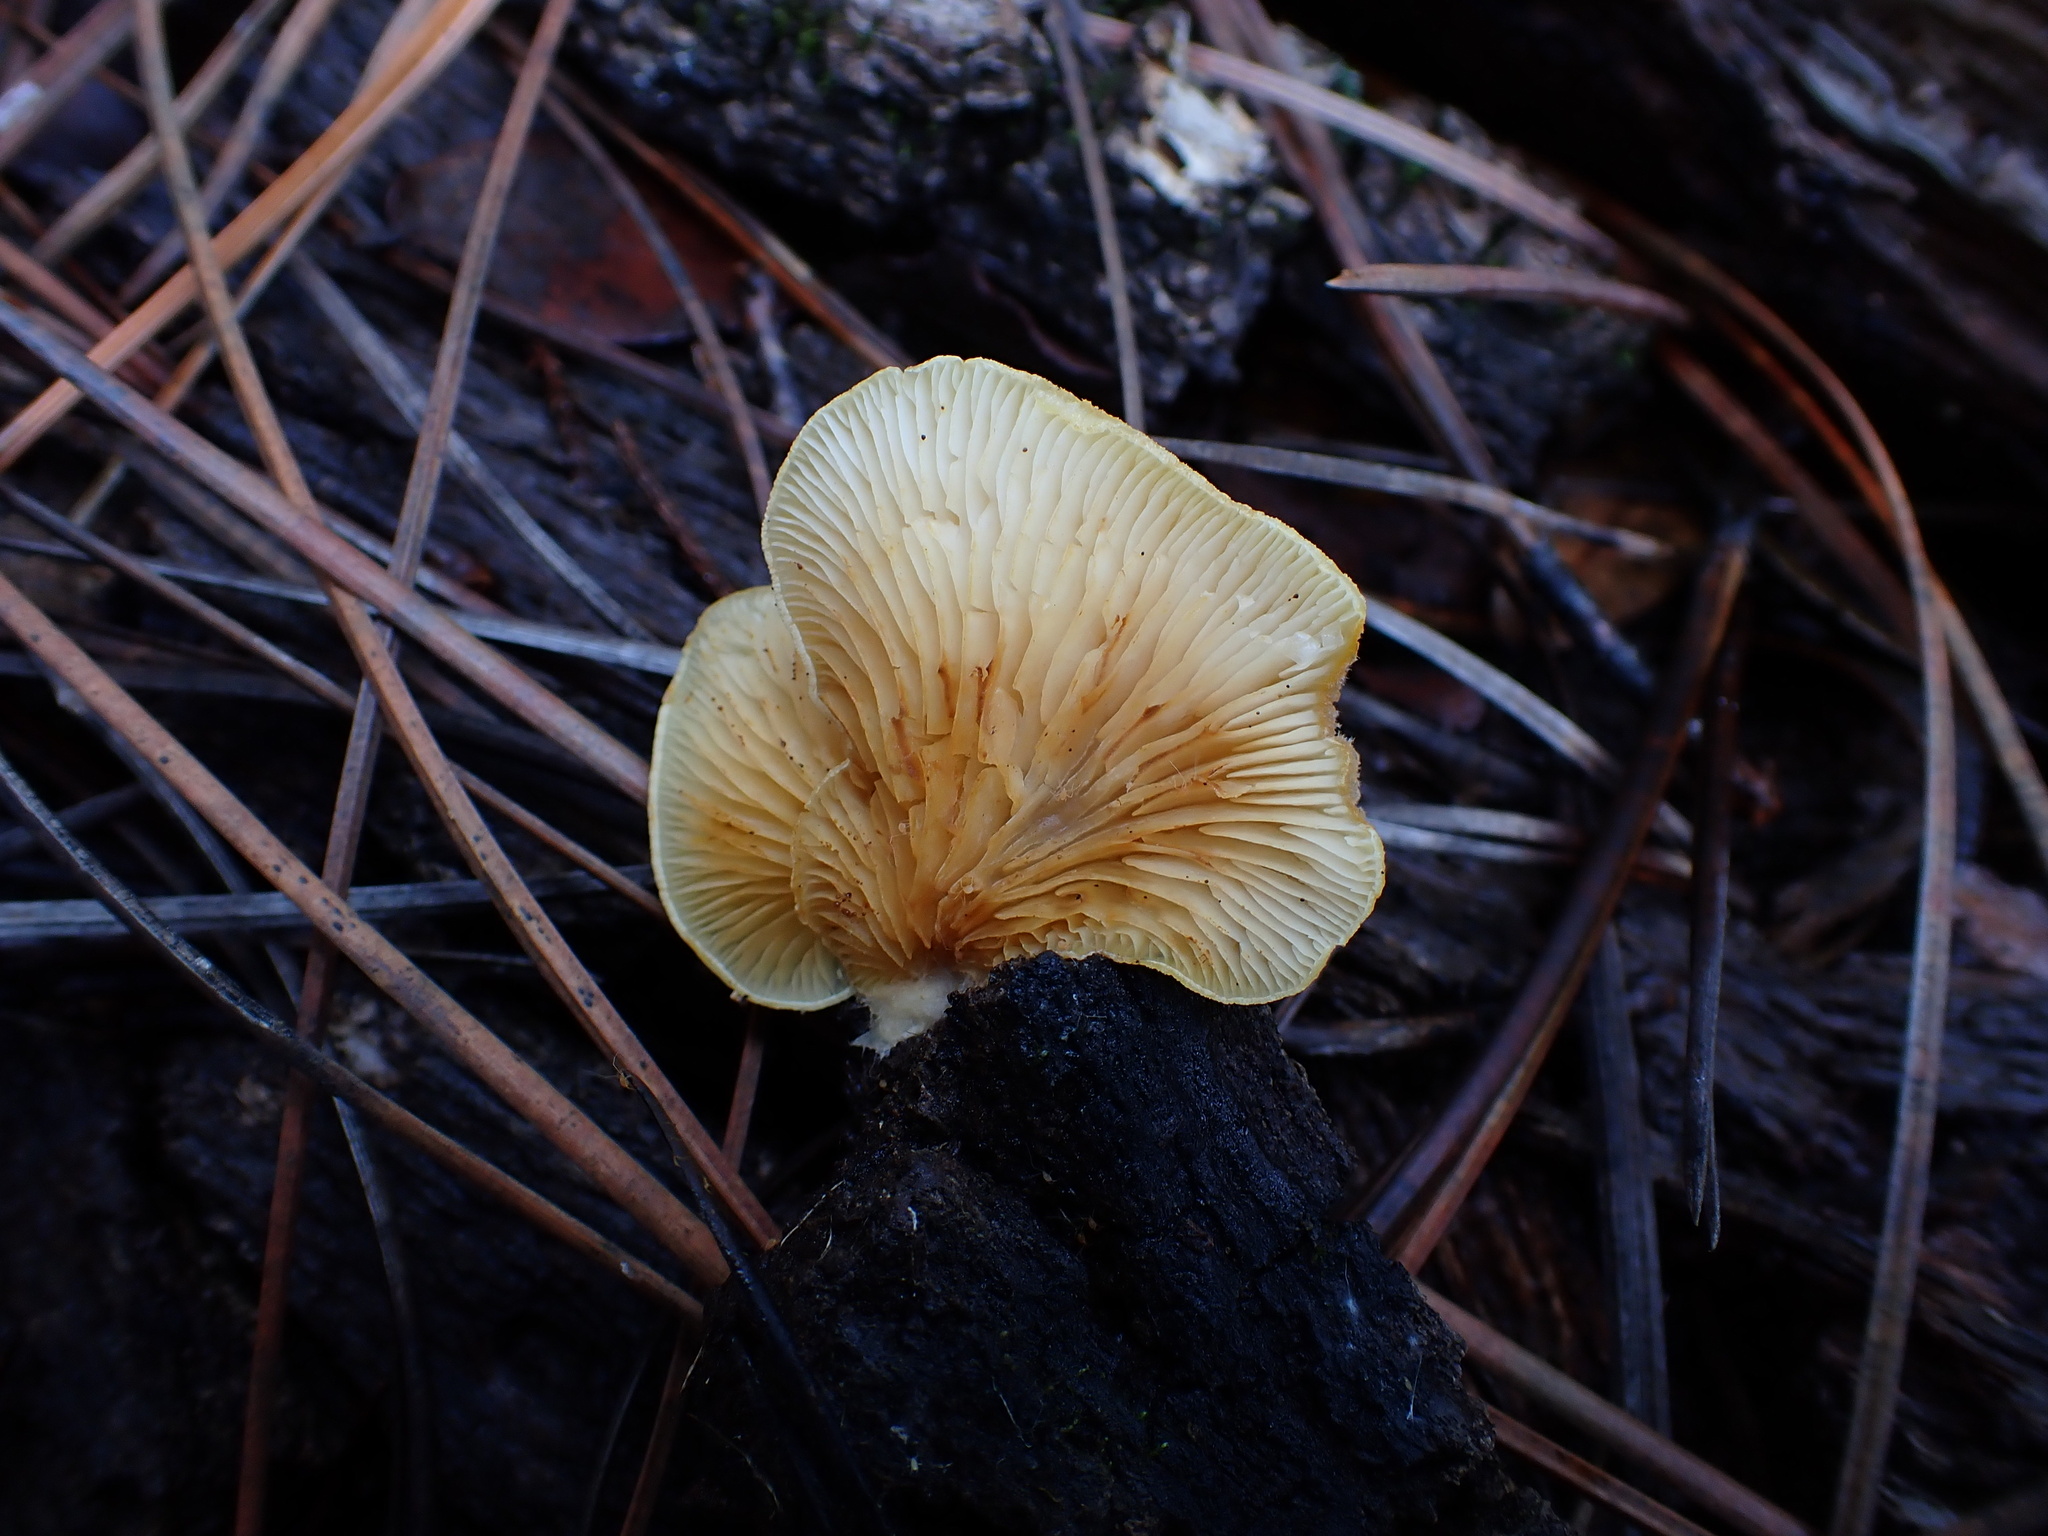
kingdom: Fungi
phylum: Basidiomycota
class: Agaricomycetes
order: Agaricales
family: Crepidotaceae
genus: Crepidotus
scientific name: Crepidotus croceotinctus
